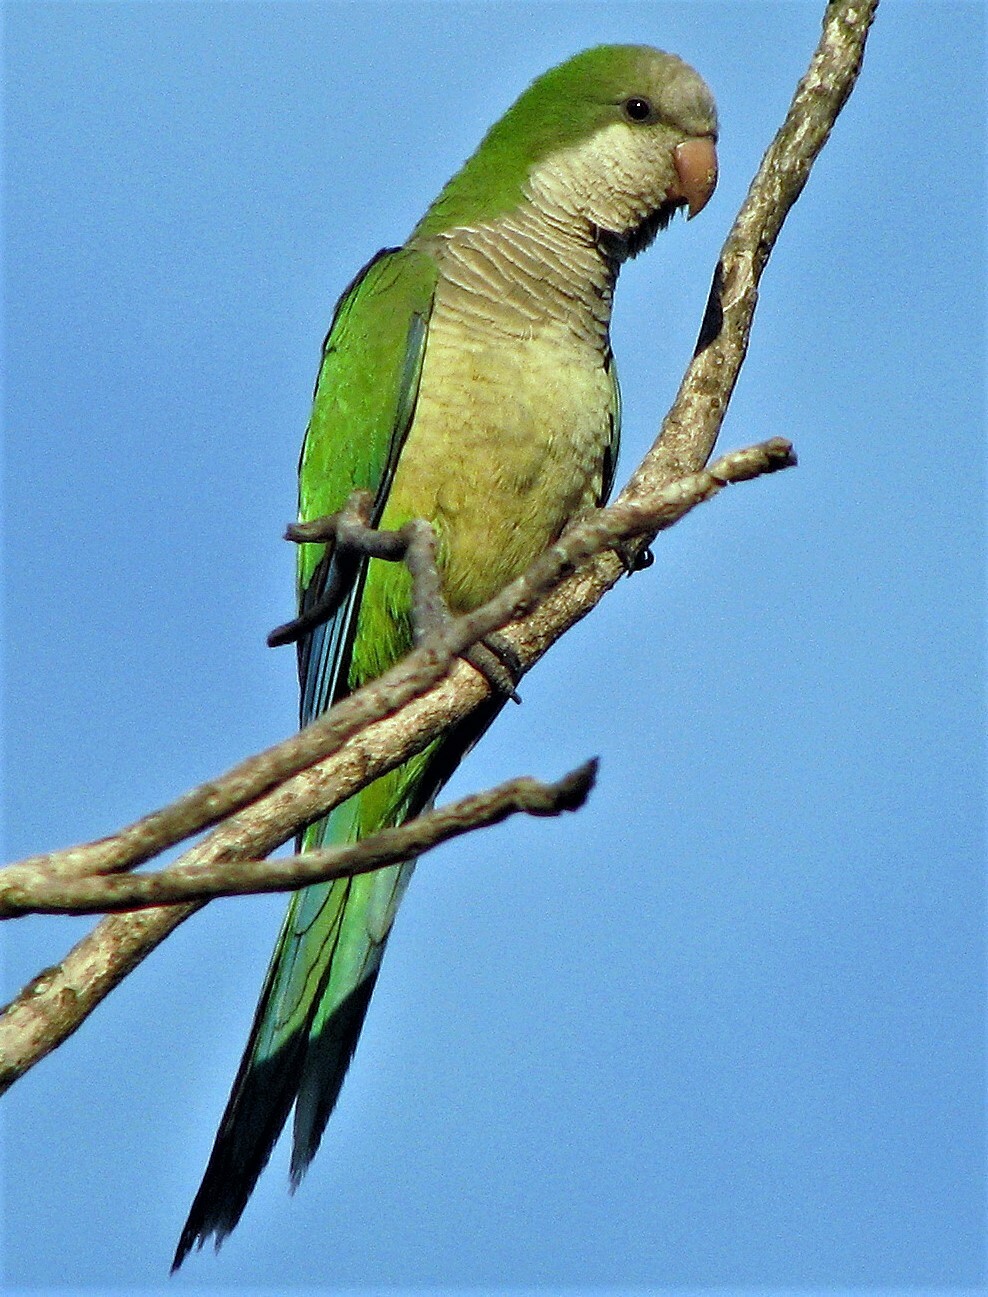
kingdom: Animalia
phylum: Chordata
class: Aves
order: Psittaciformes
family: Psittacidae
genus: Myiopsitta
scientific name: Myiopsitta monachus
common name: Monk parakeet
